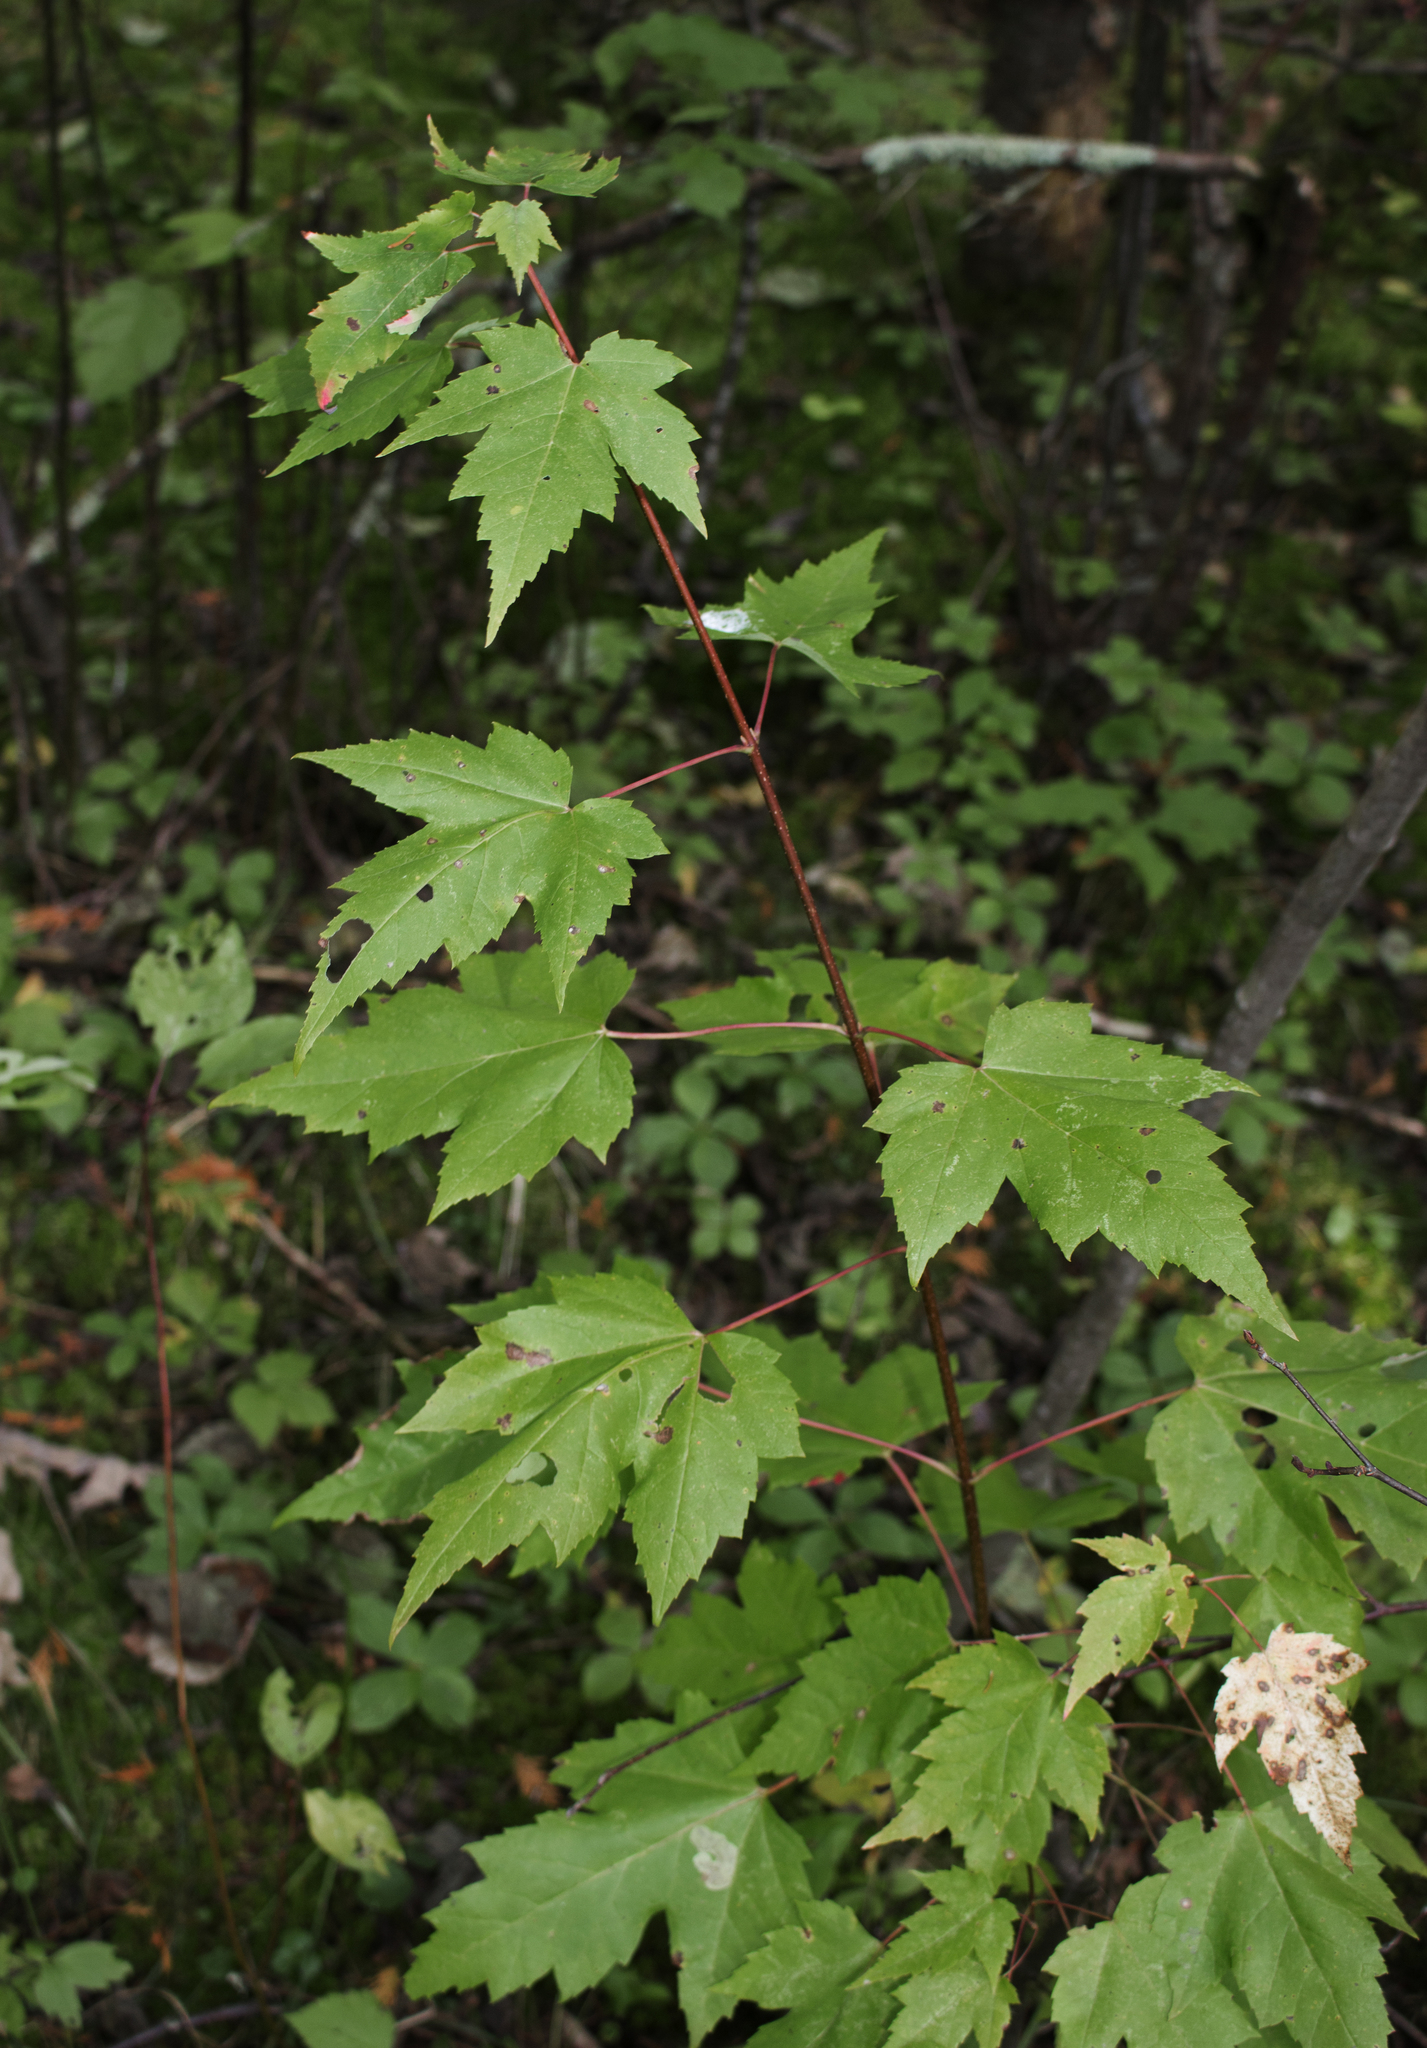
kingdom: Plantae
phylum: Tracheophyta
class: Magnoliopsida
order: Sapindales
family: Sapindaceae
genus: Acer
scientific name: Acer rubrum
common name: Red maple
